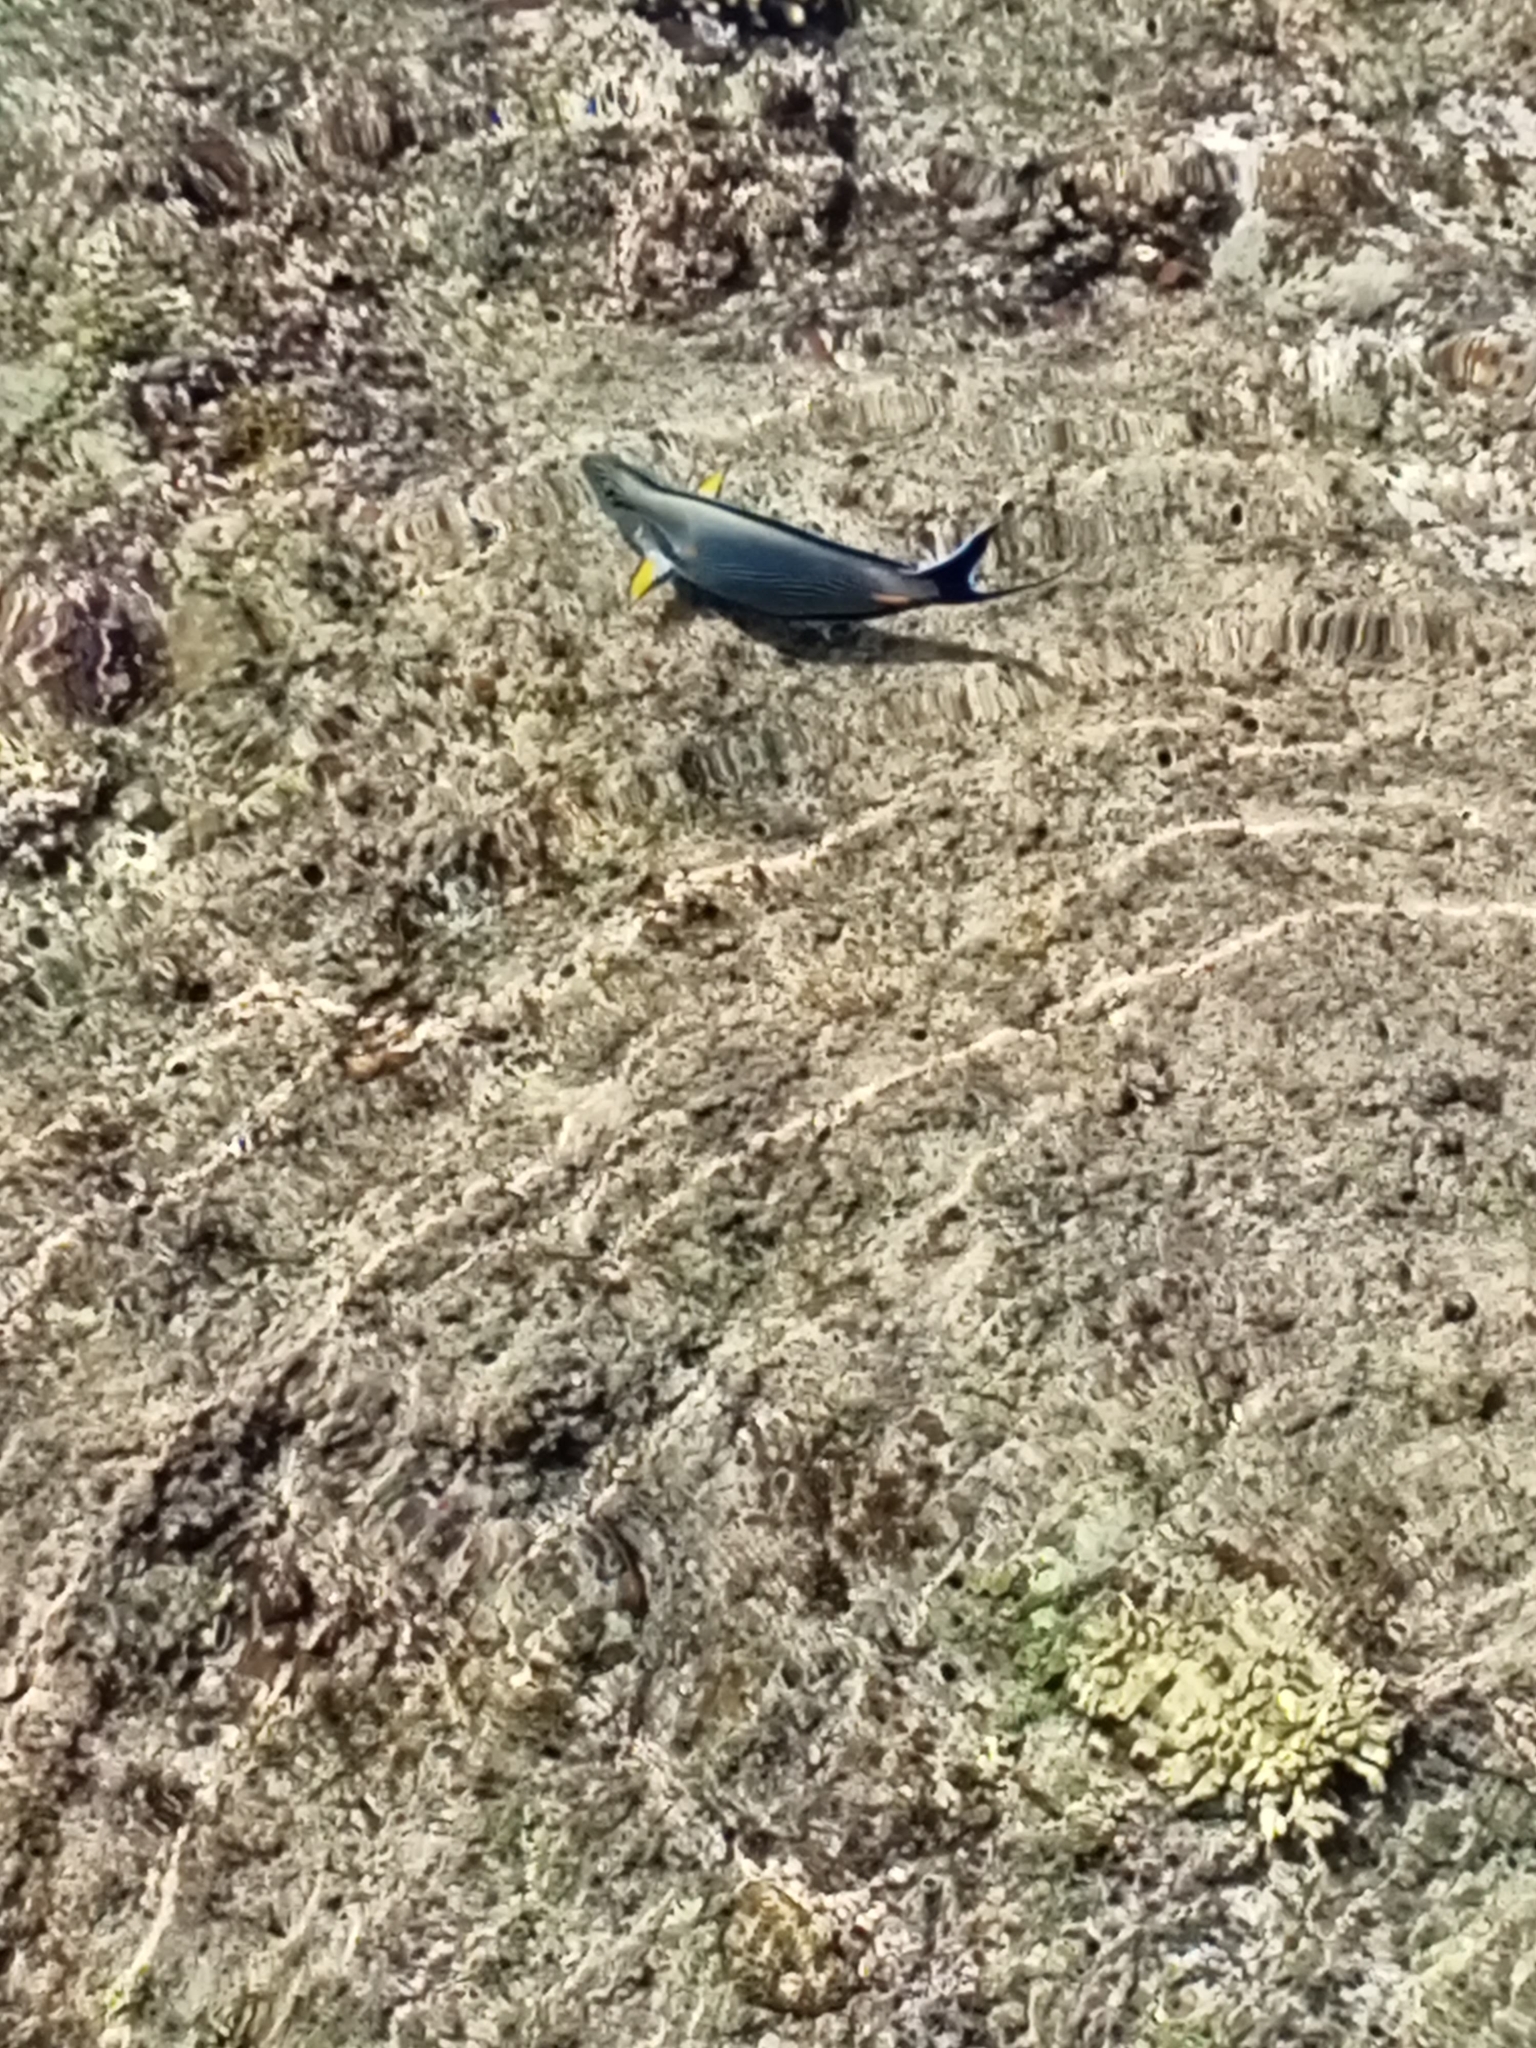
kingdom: Animalia
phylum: Chordata
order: Perciformes
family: Acanthuridae
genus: Acanthurus
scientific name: Acanthurus sohal
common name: Red sea surgeonfish
